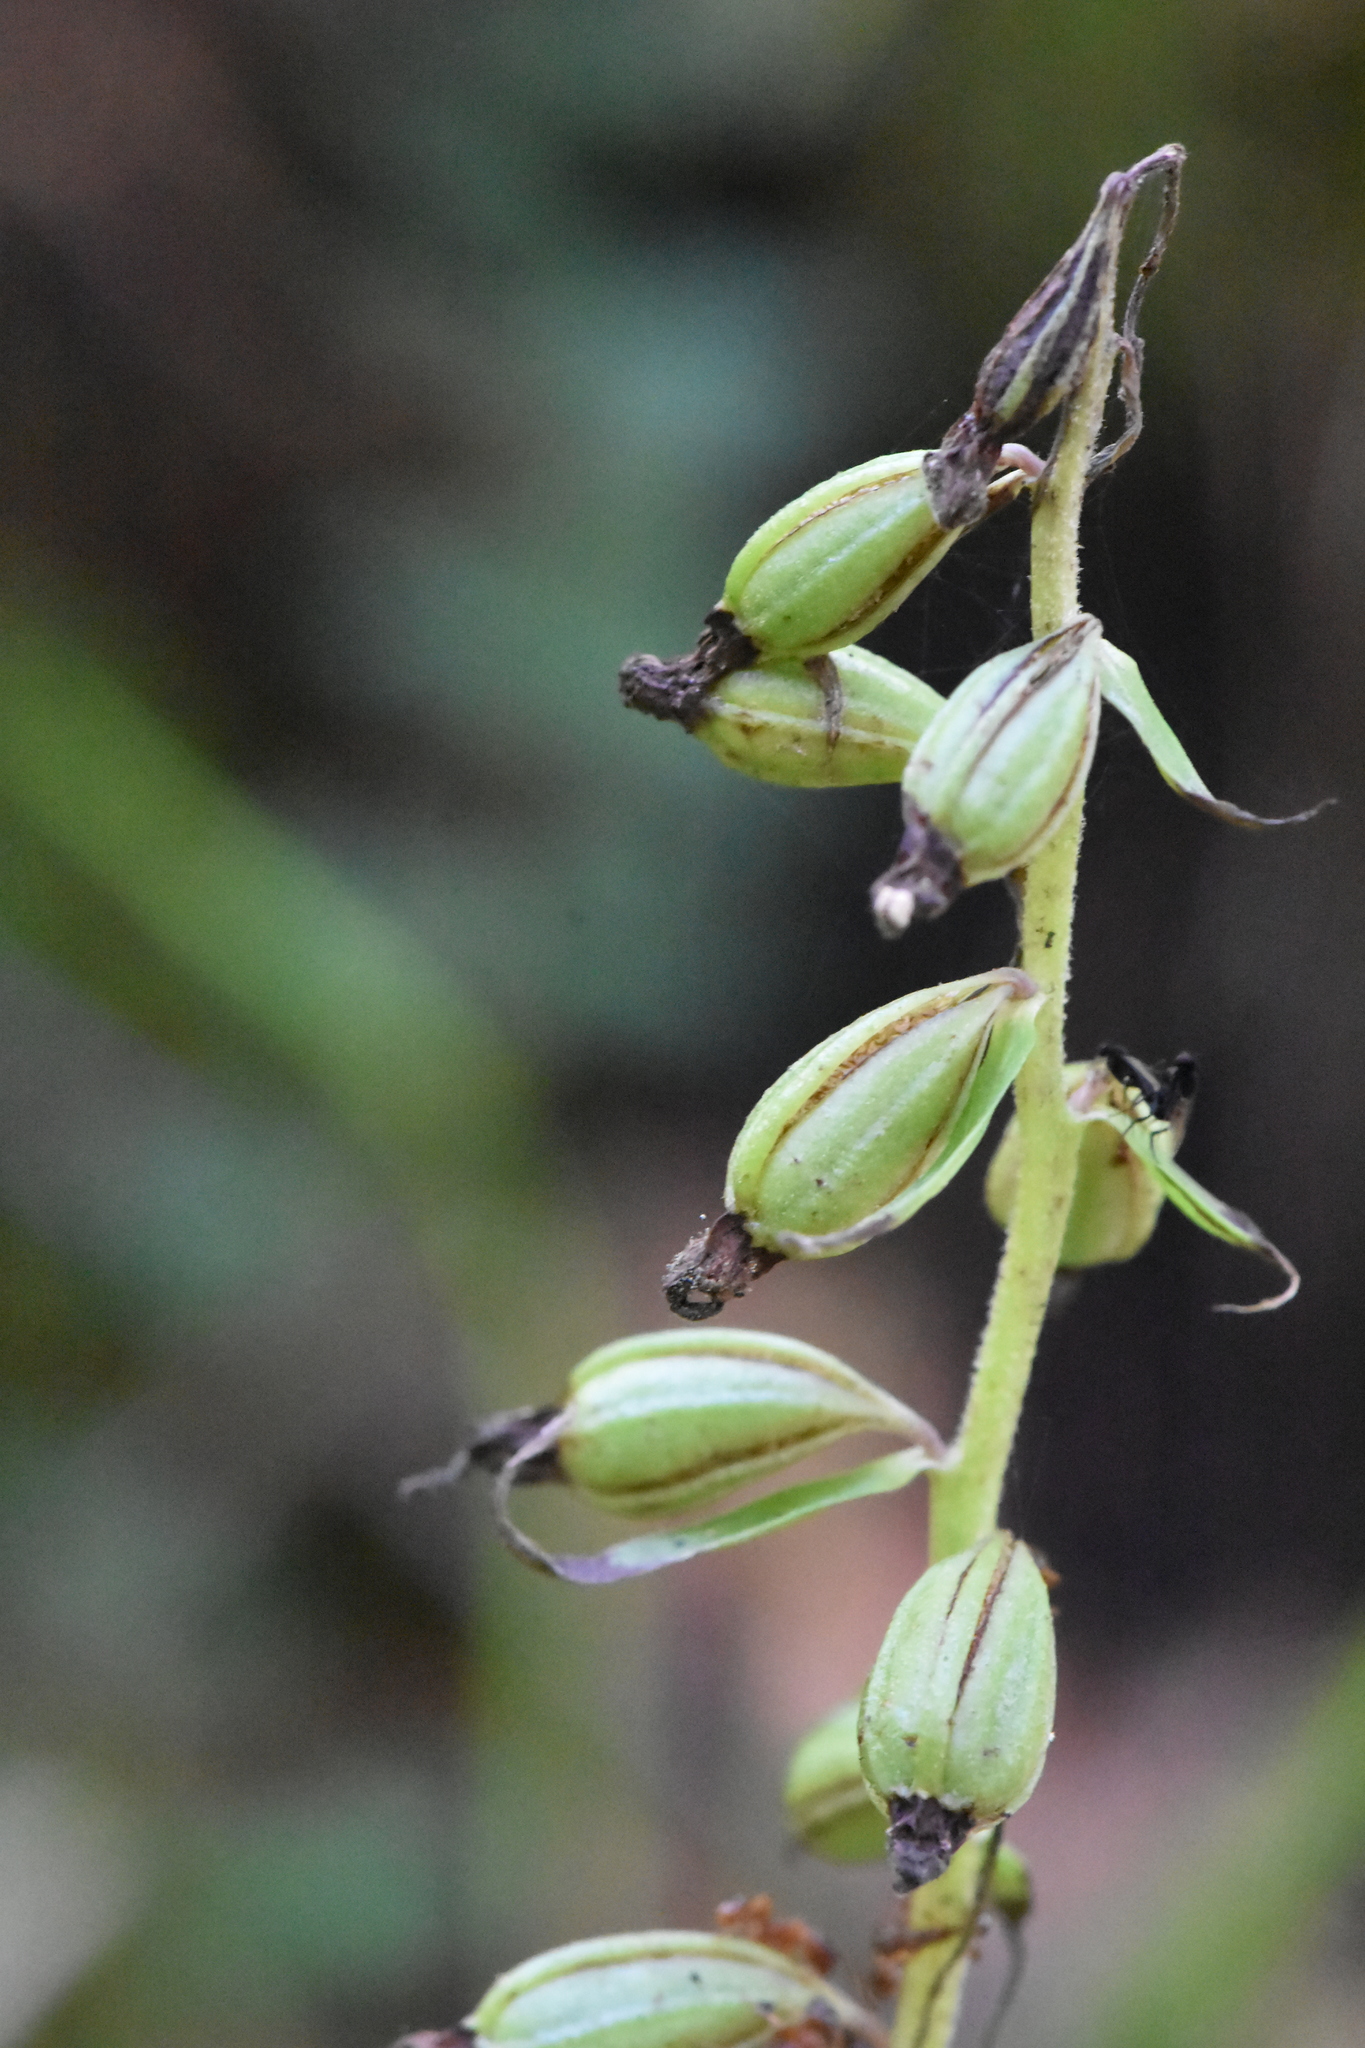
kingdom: Plantae
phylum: Tracheophyta
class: Liliopsida
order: Asparagales
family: Orchidaceae
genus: Epipactis
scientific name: Epipactis helleborine
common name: Broad-leaved helleborine
